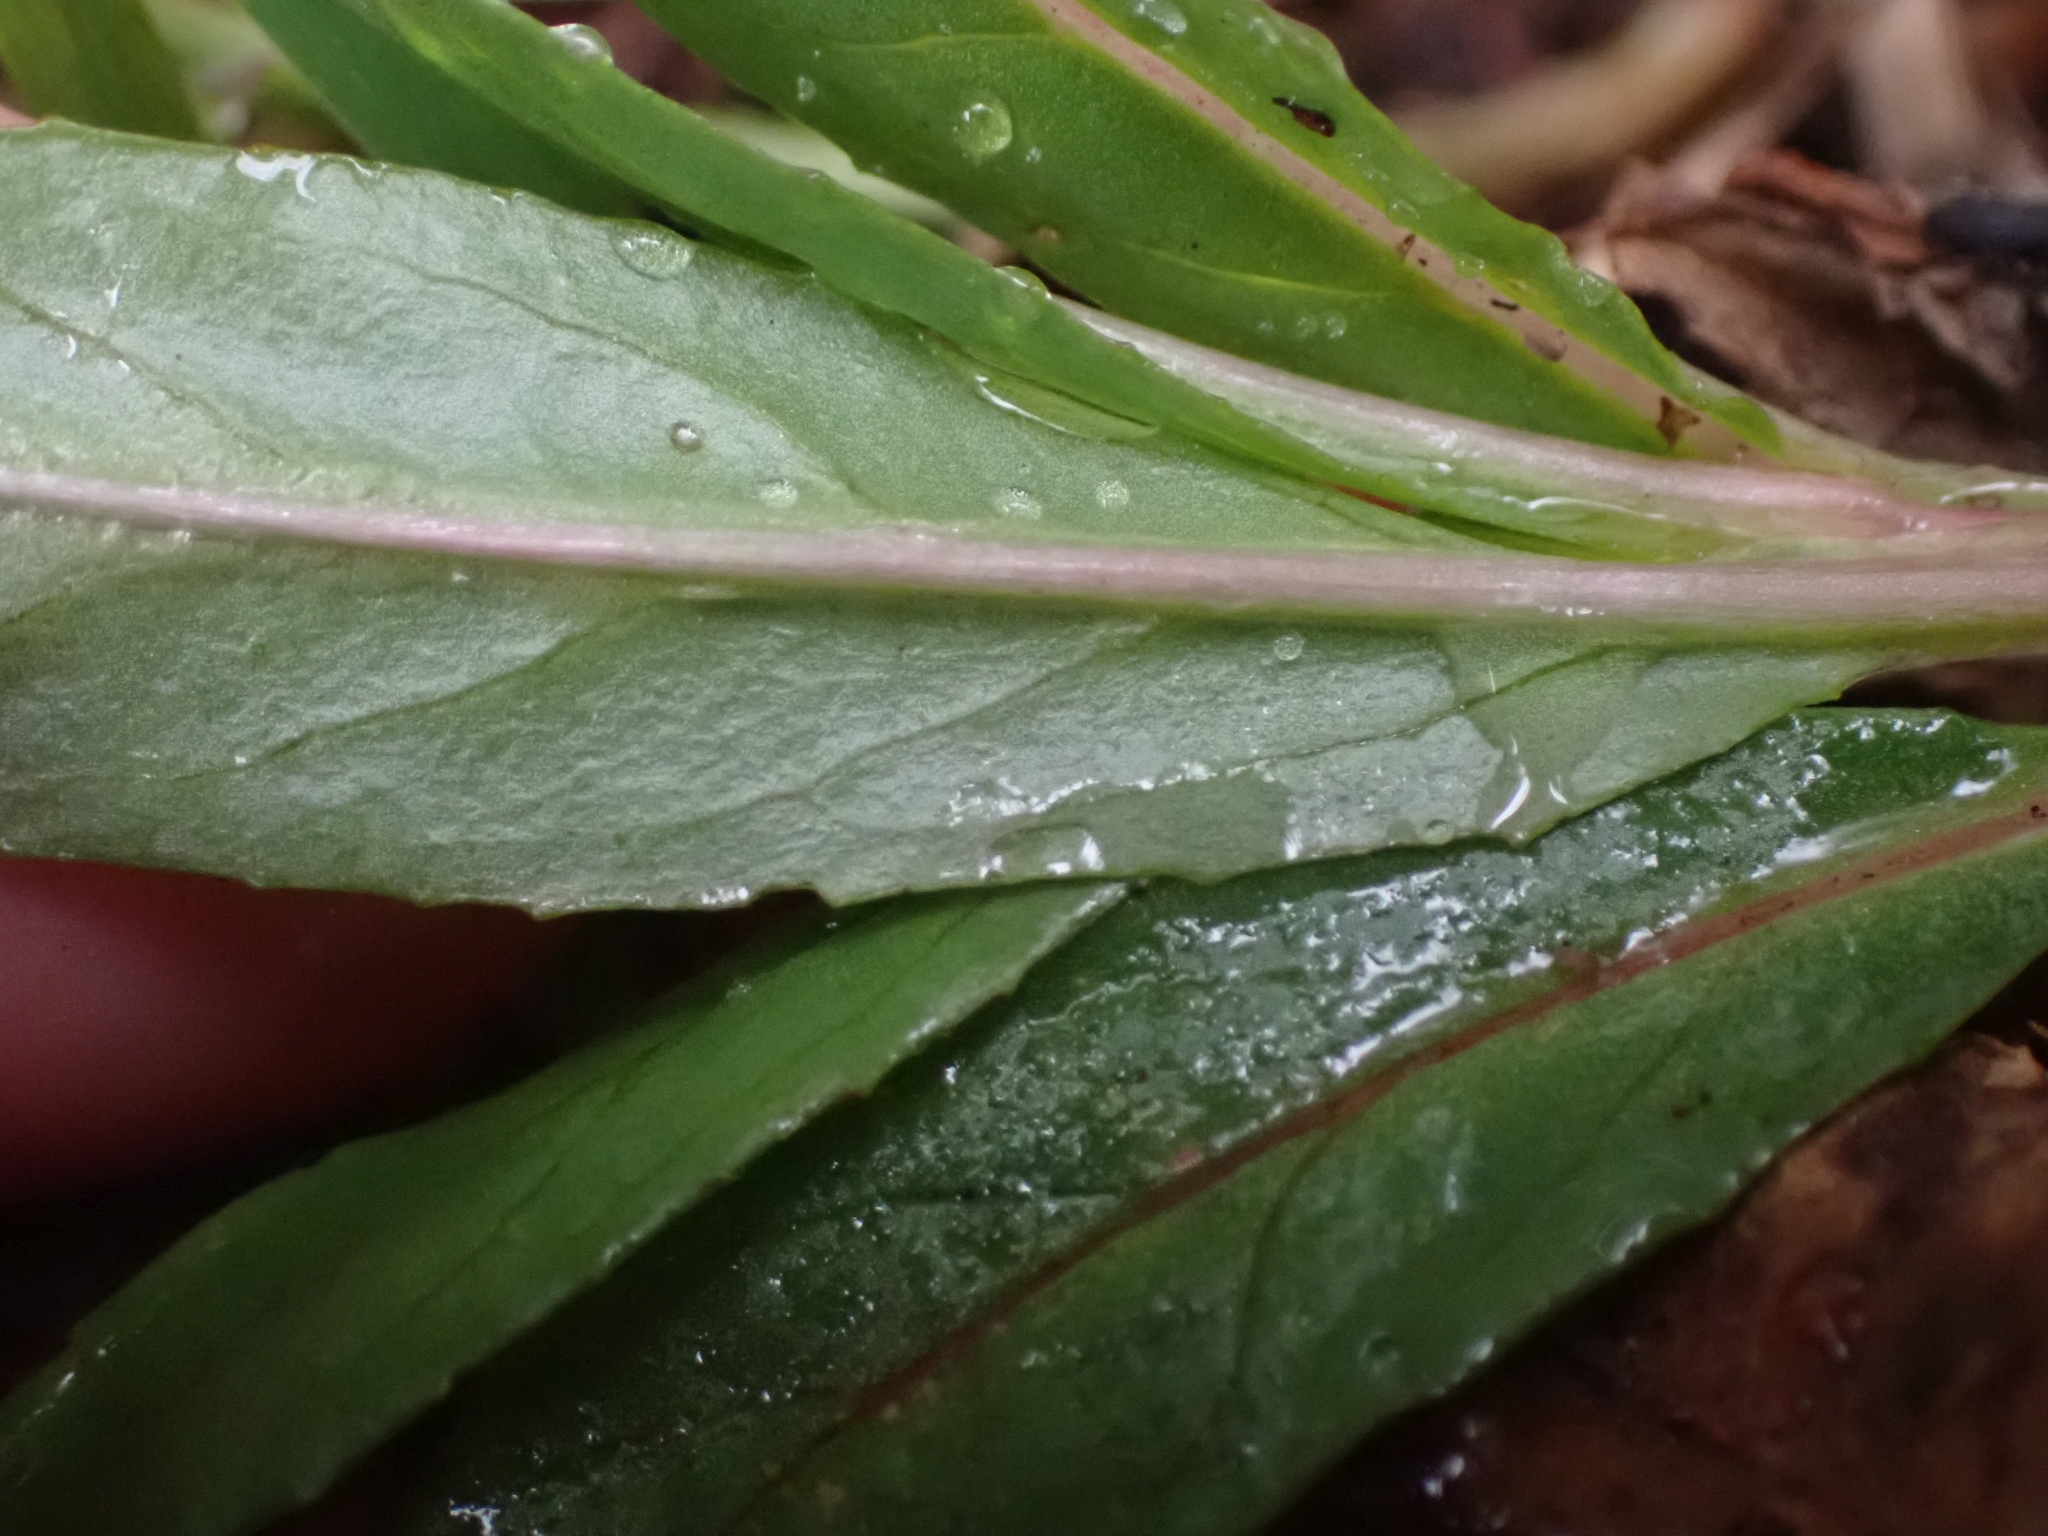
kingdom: Plantae
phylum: Tracheophyta
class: Magnoliopsida
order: Myrtales
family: Onagraceae
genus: Epilobium
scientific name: Epilobium ciliatum
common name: American willowherb
